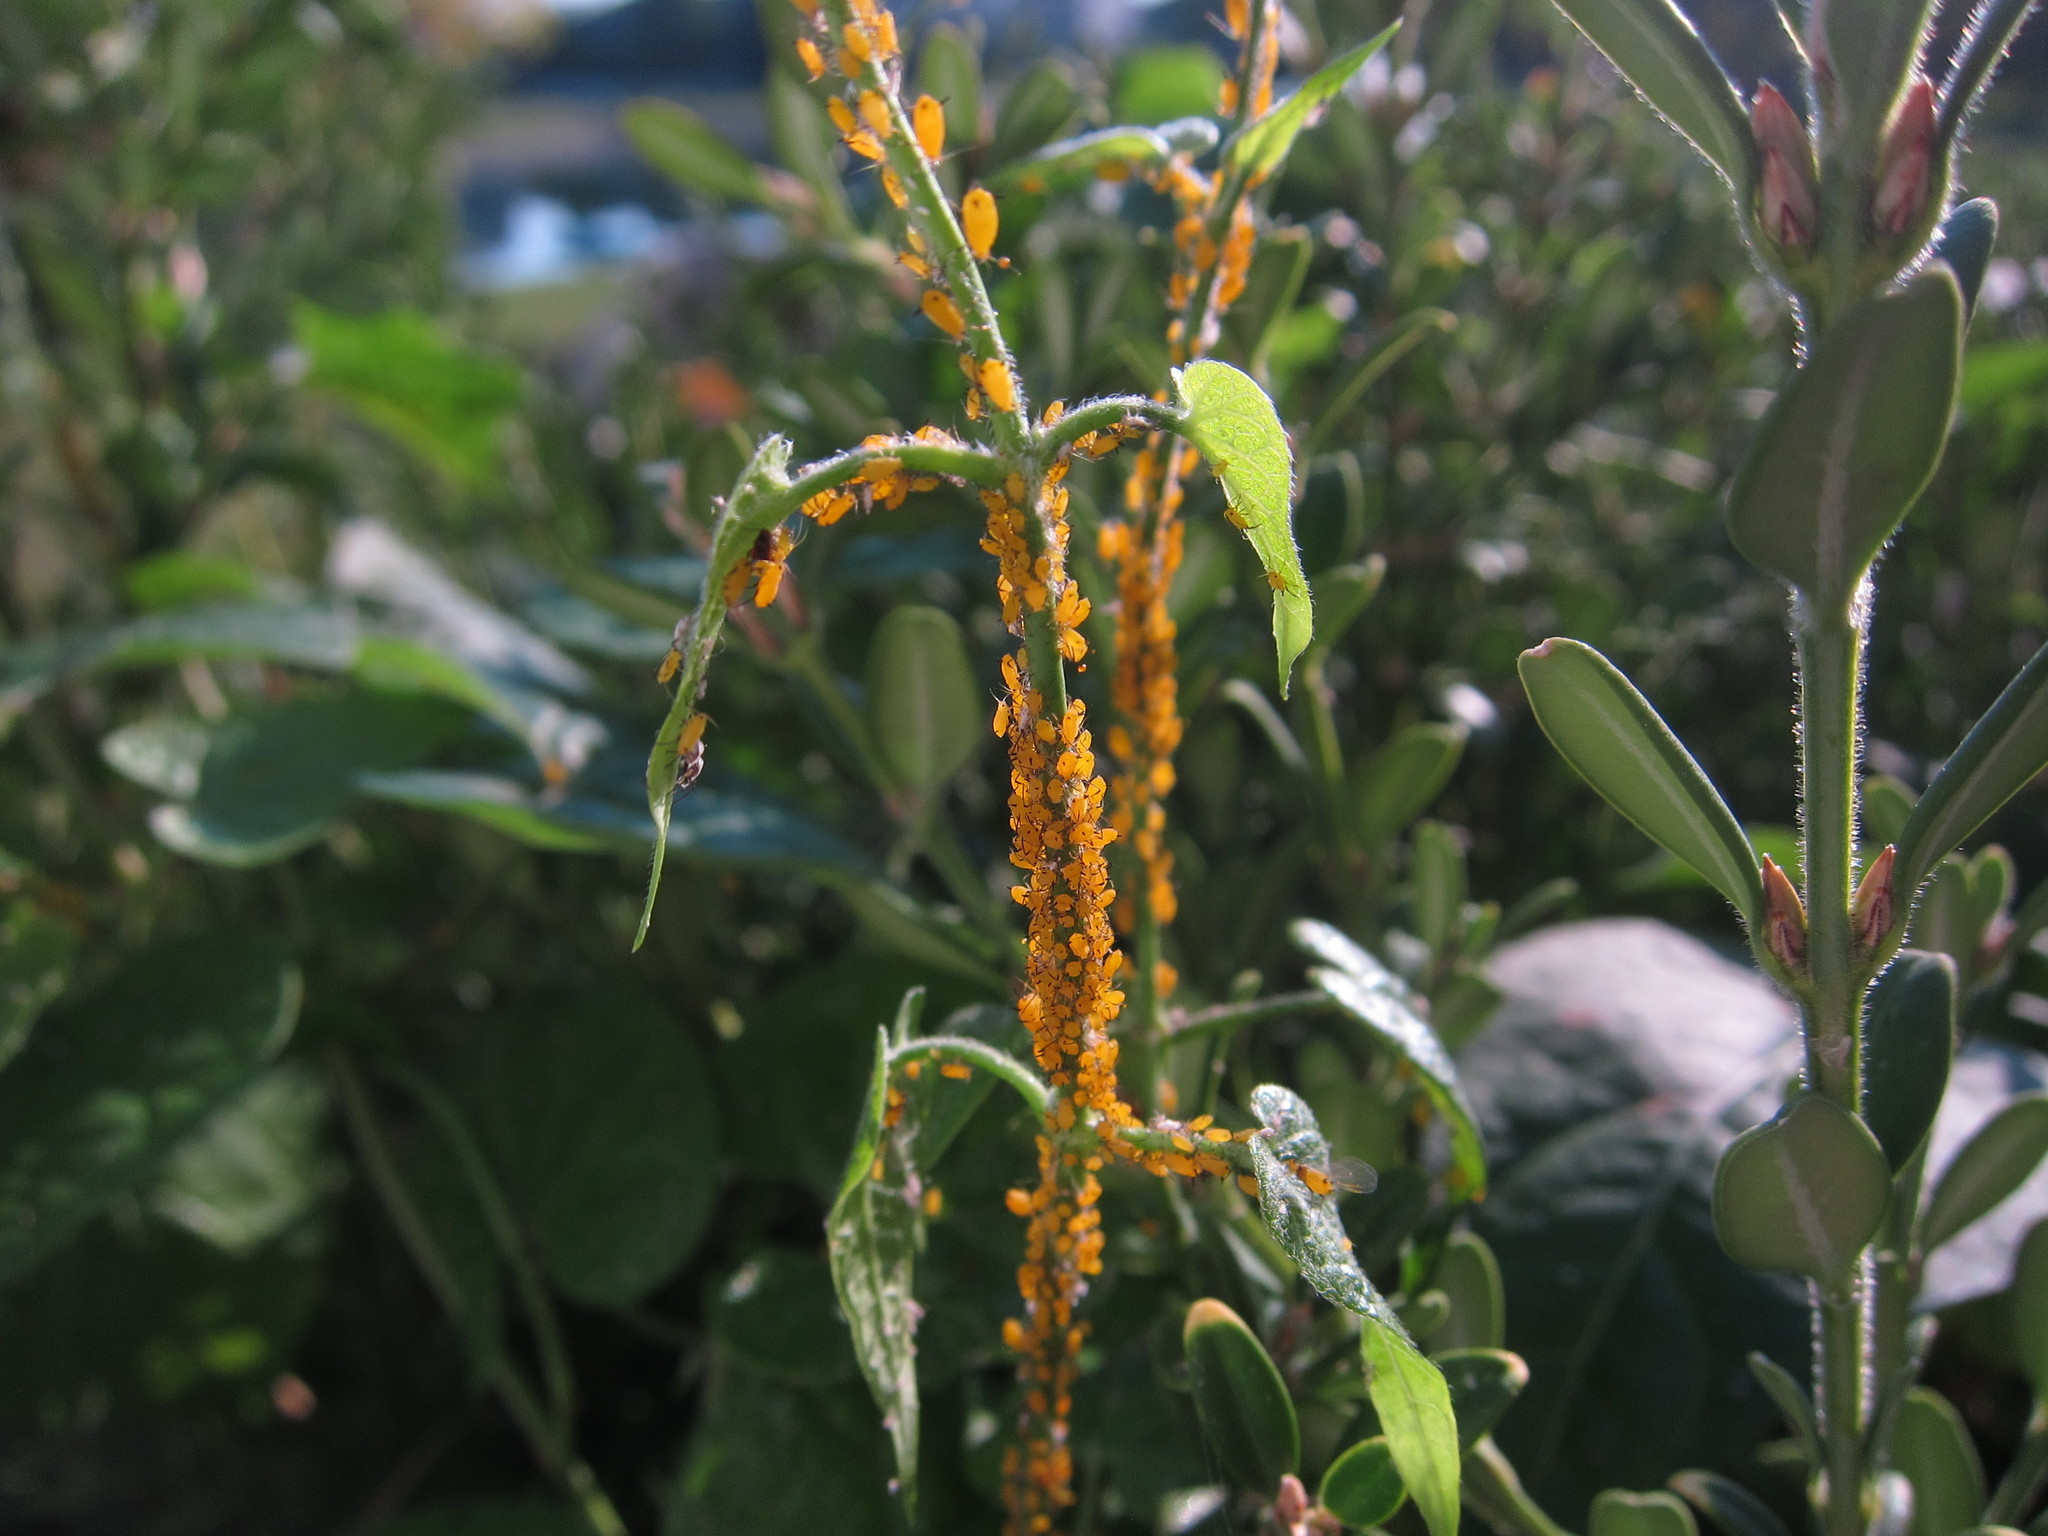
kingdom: Animalia
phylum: Arthropoda
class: Insecta
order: Hemiptera
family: Aphididae
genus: Aphis
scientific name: Aphis nerii
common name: Oleander aphid
